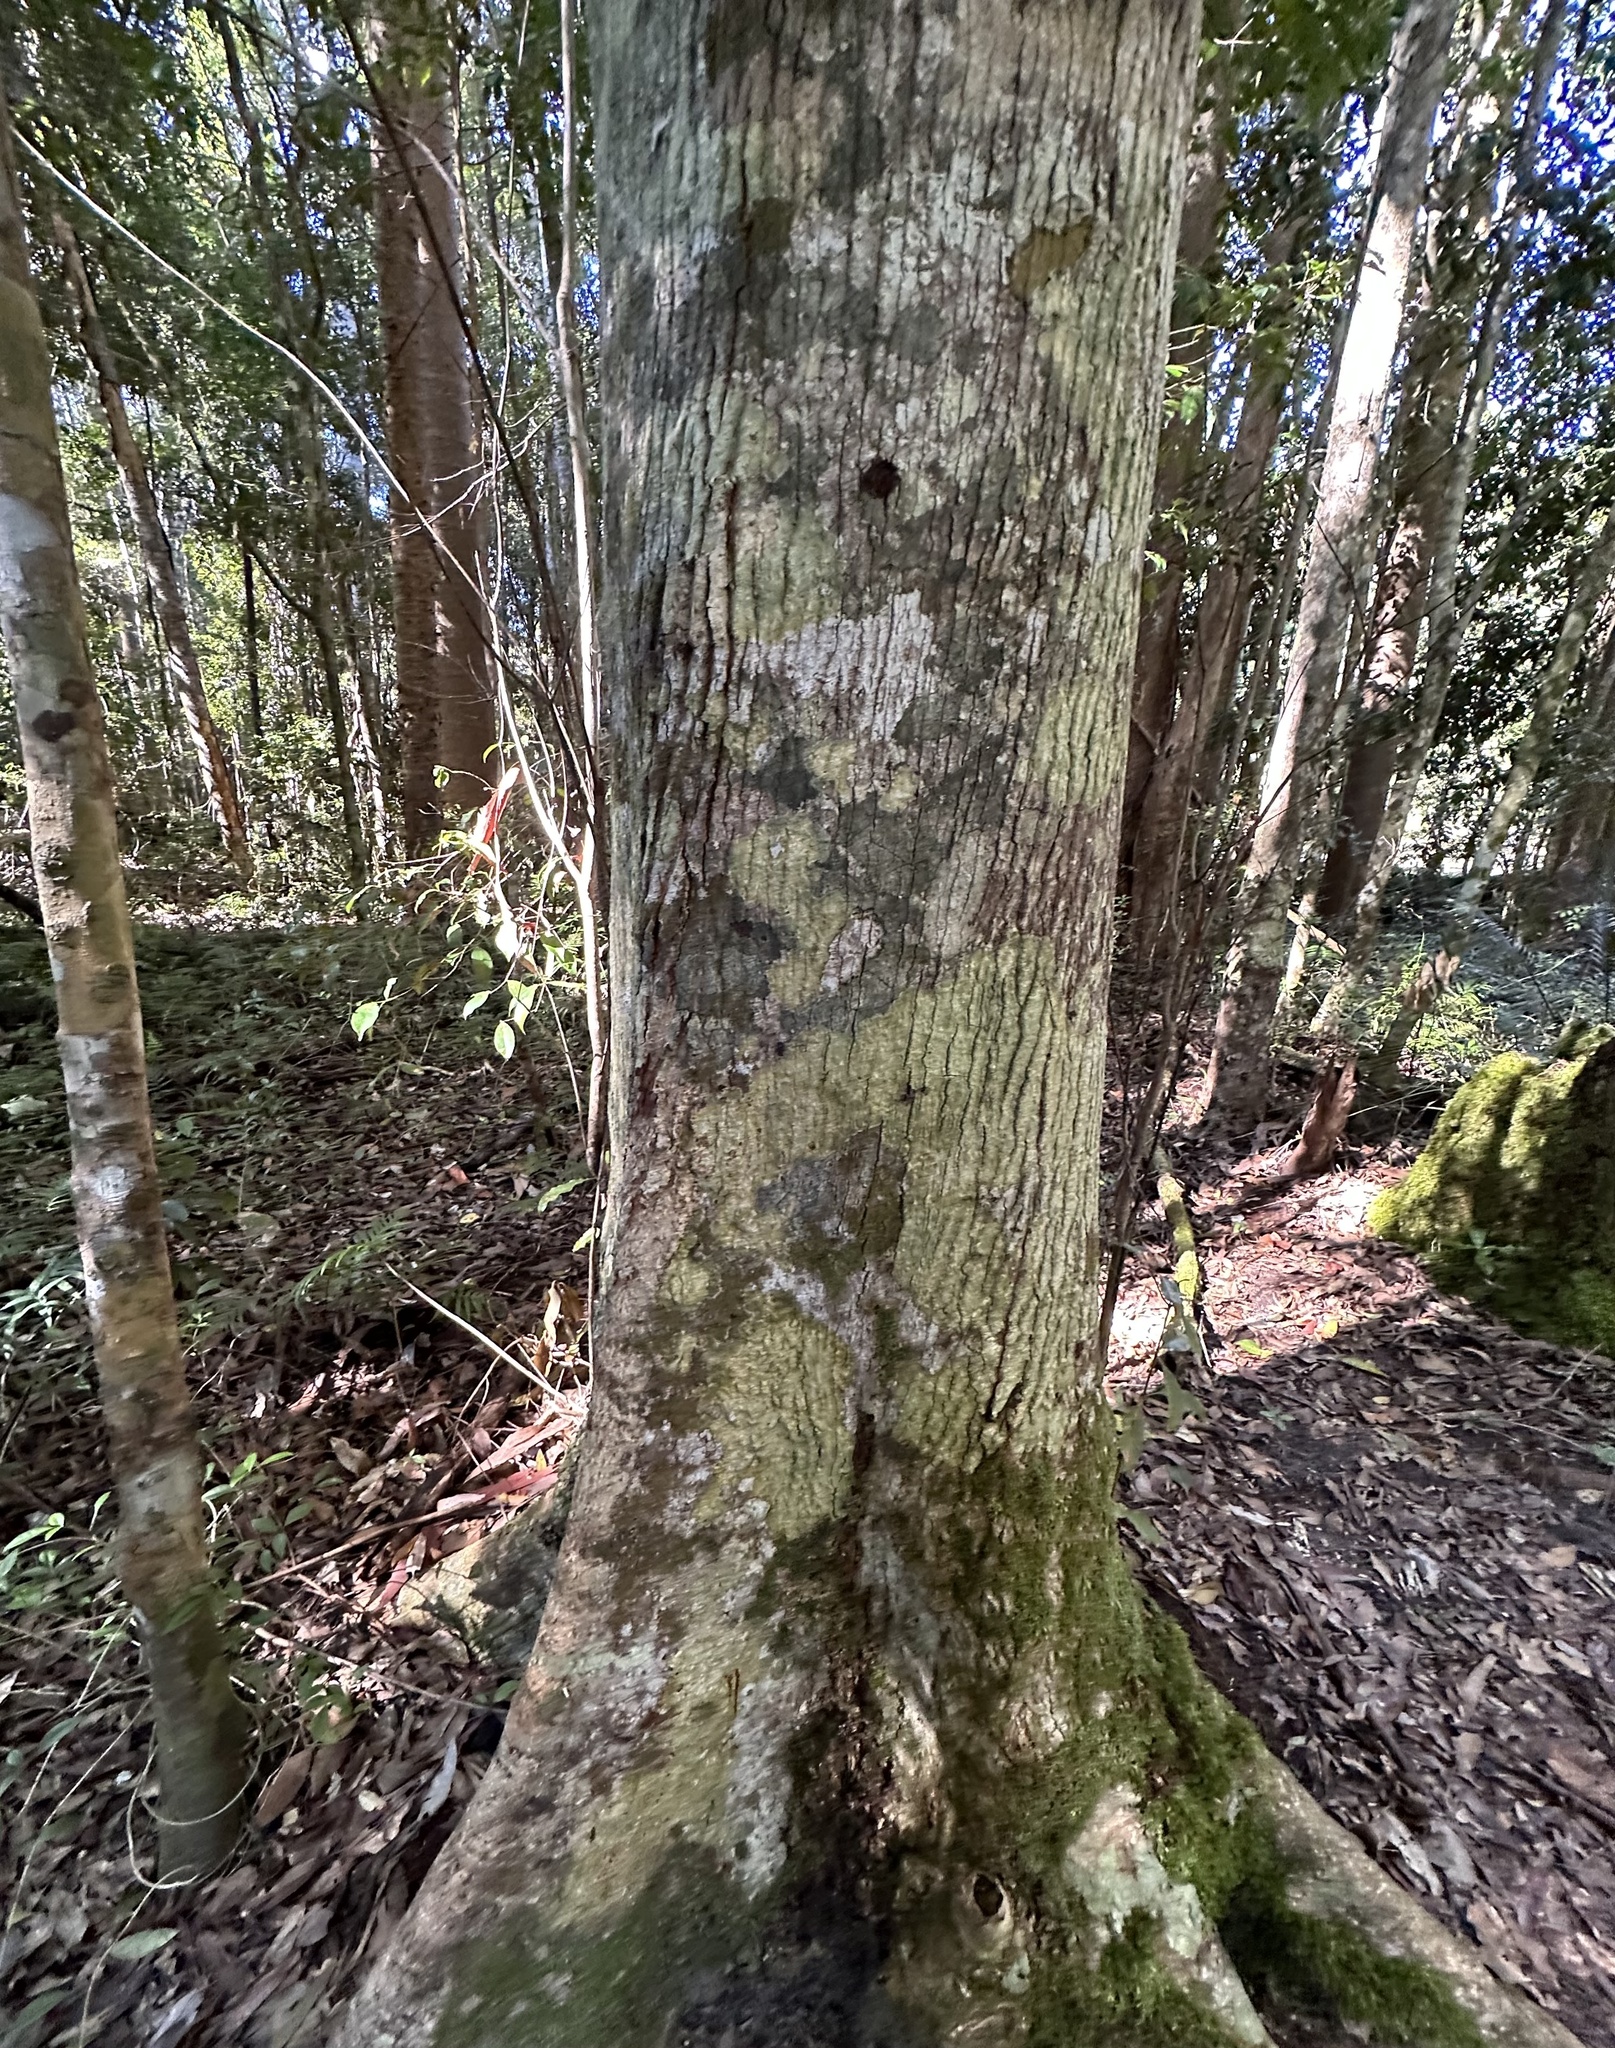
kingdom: Plantae
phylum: Tracheophyta
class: Magnoliopsida
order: Malvales
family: Malvaceae
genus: Brachychiton
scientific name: Brachychiton discolor
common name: Queensland lacebark
